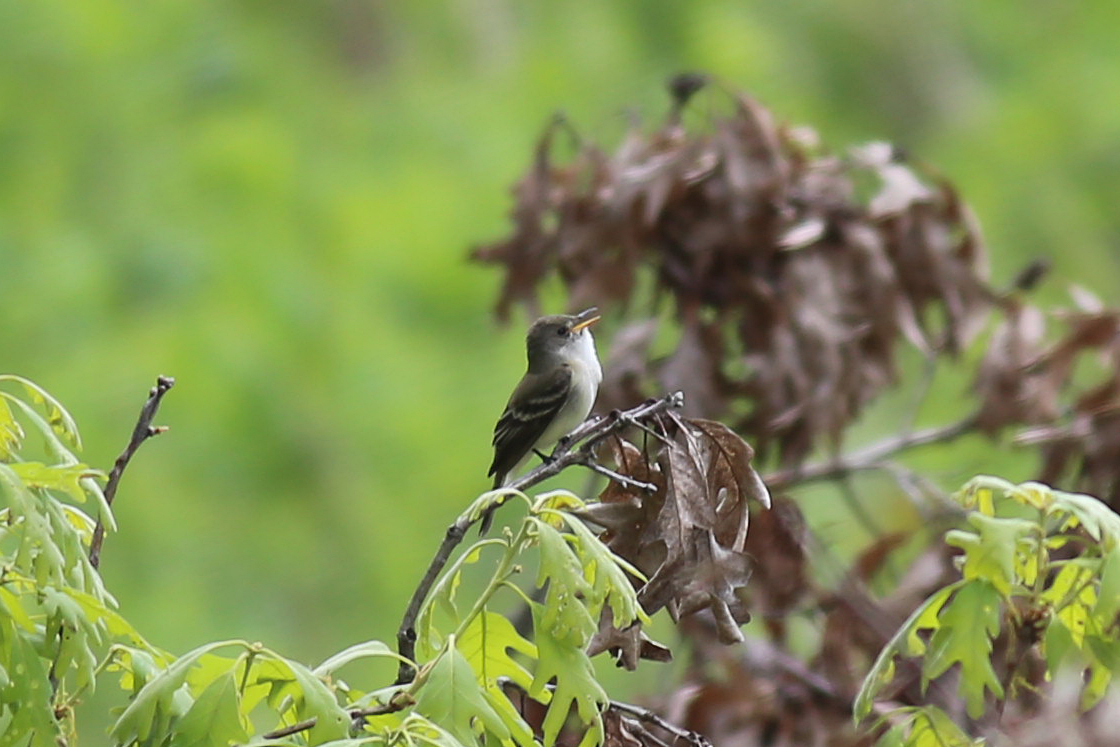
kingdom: Animalia
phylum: Chordata
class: Aves
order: Passeriformes
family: Tyrannidae
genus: Empidonax
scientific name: Empidonax traillii
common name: Willow flycatcher
